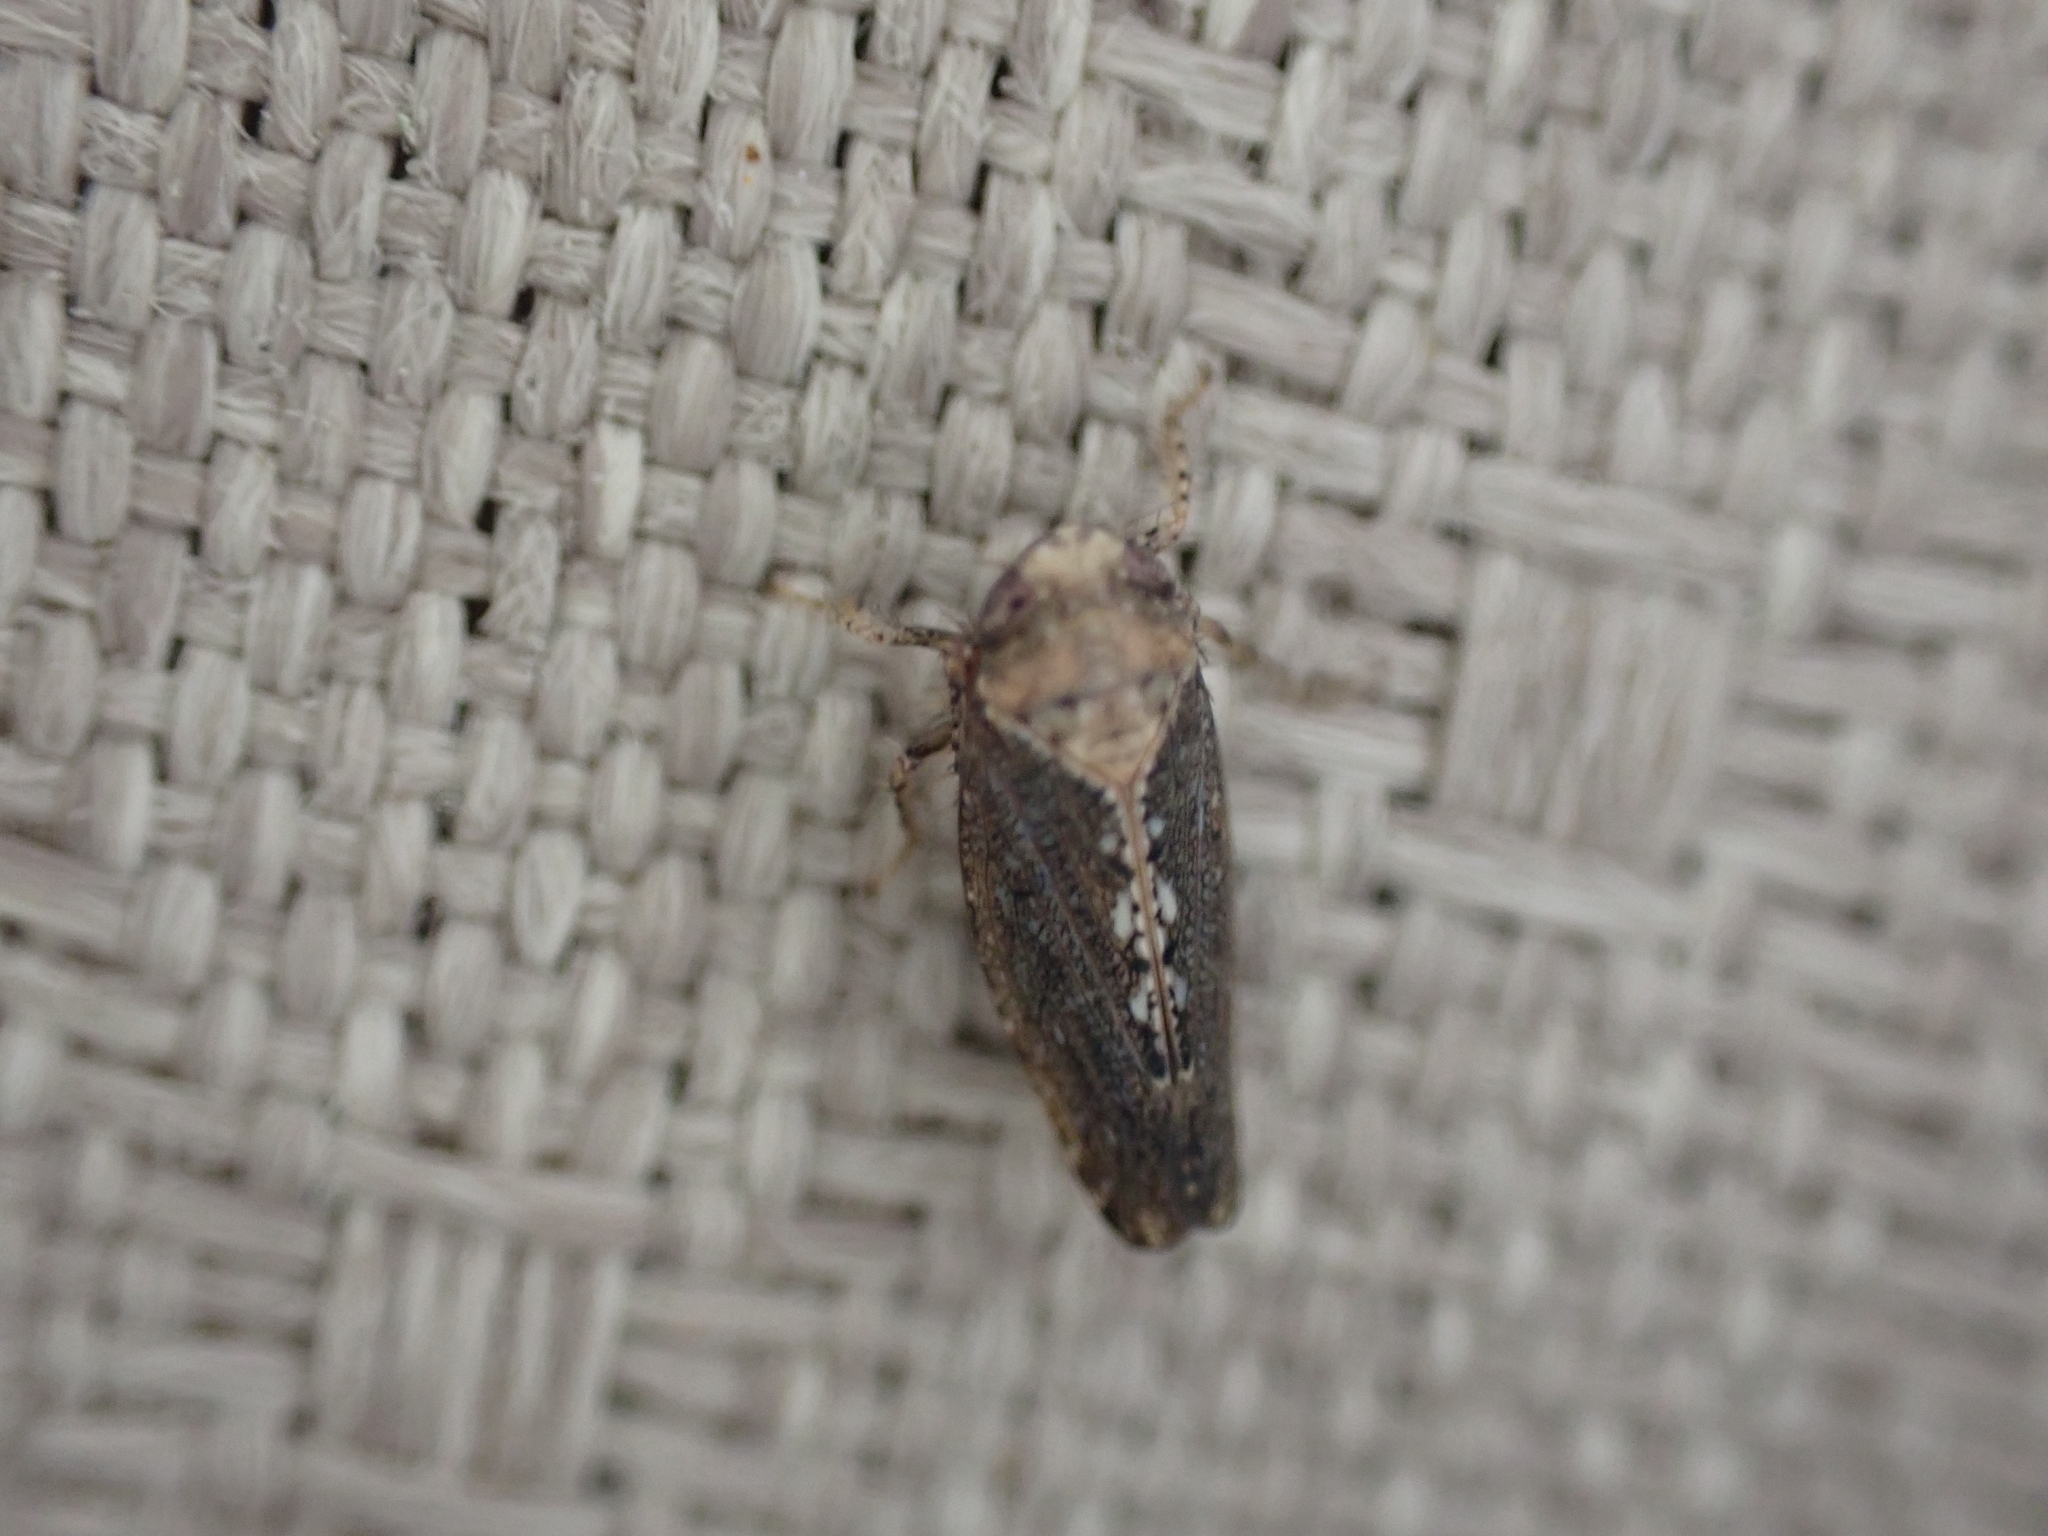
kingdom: Animalia
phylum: Arthropoda
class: Insecta
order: Hemiptera
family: Cicadellidae
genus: Excultanus
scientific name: Excultanus excultus
